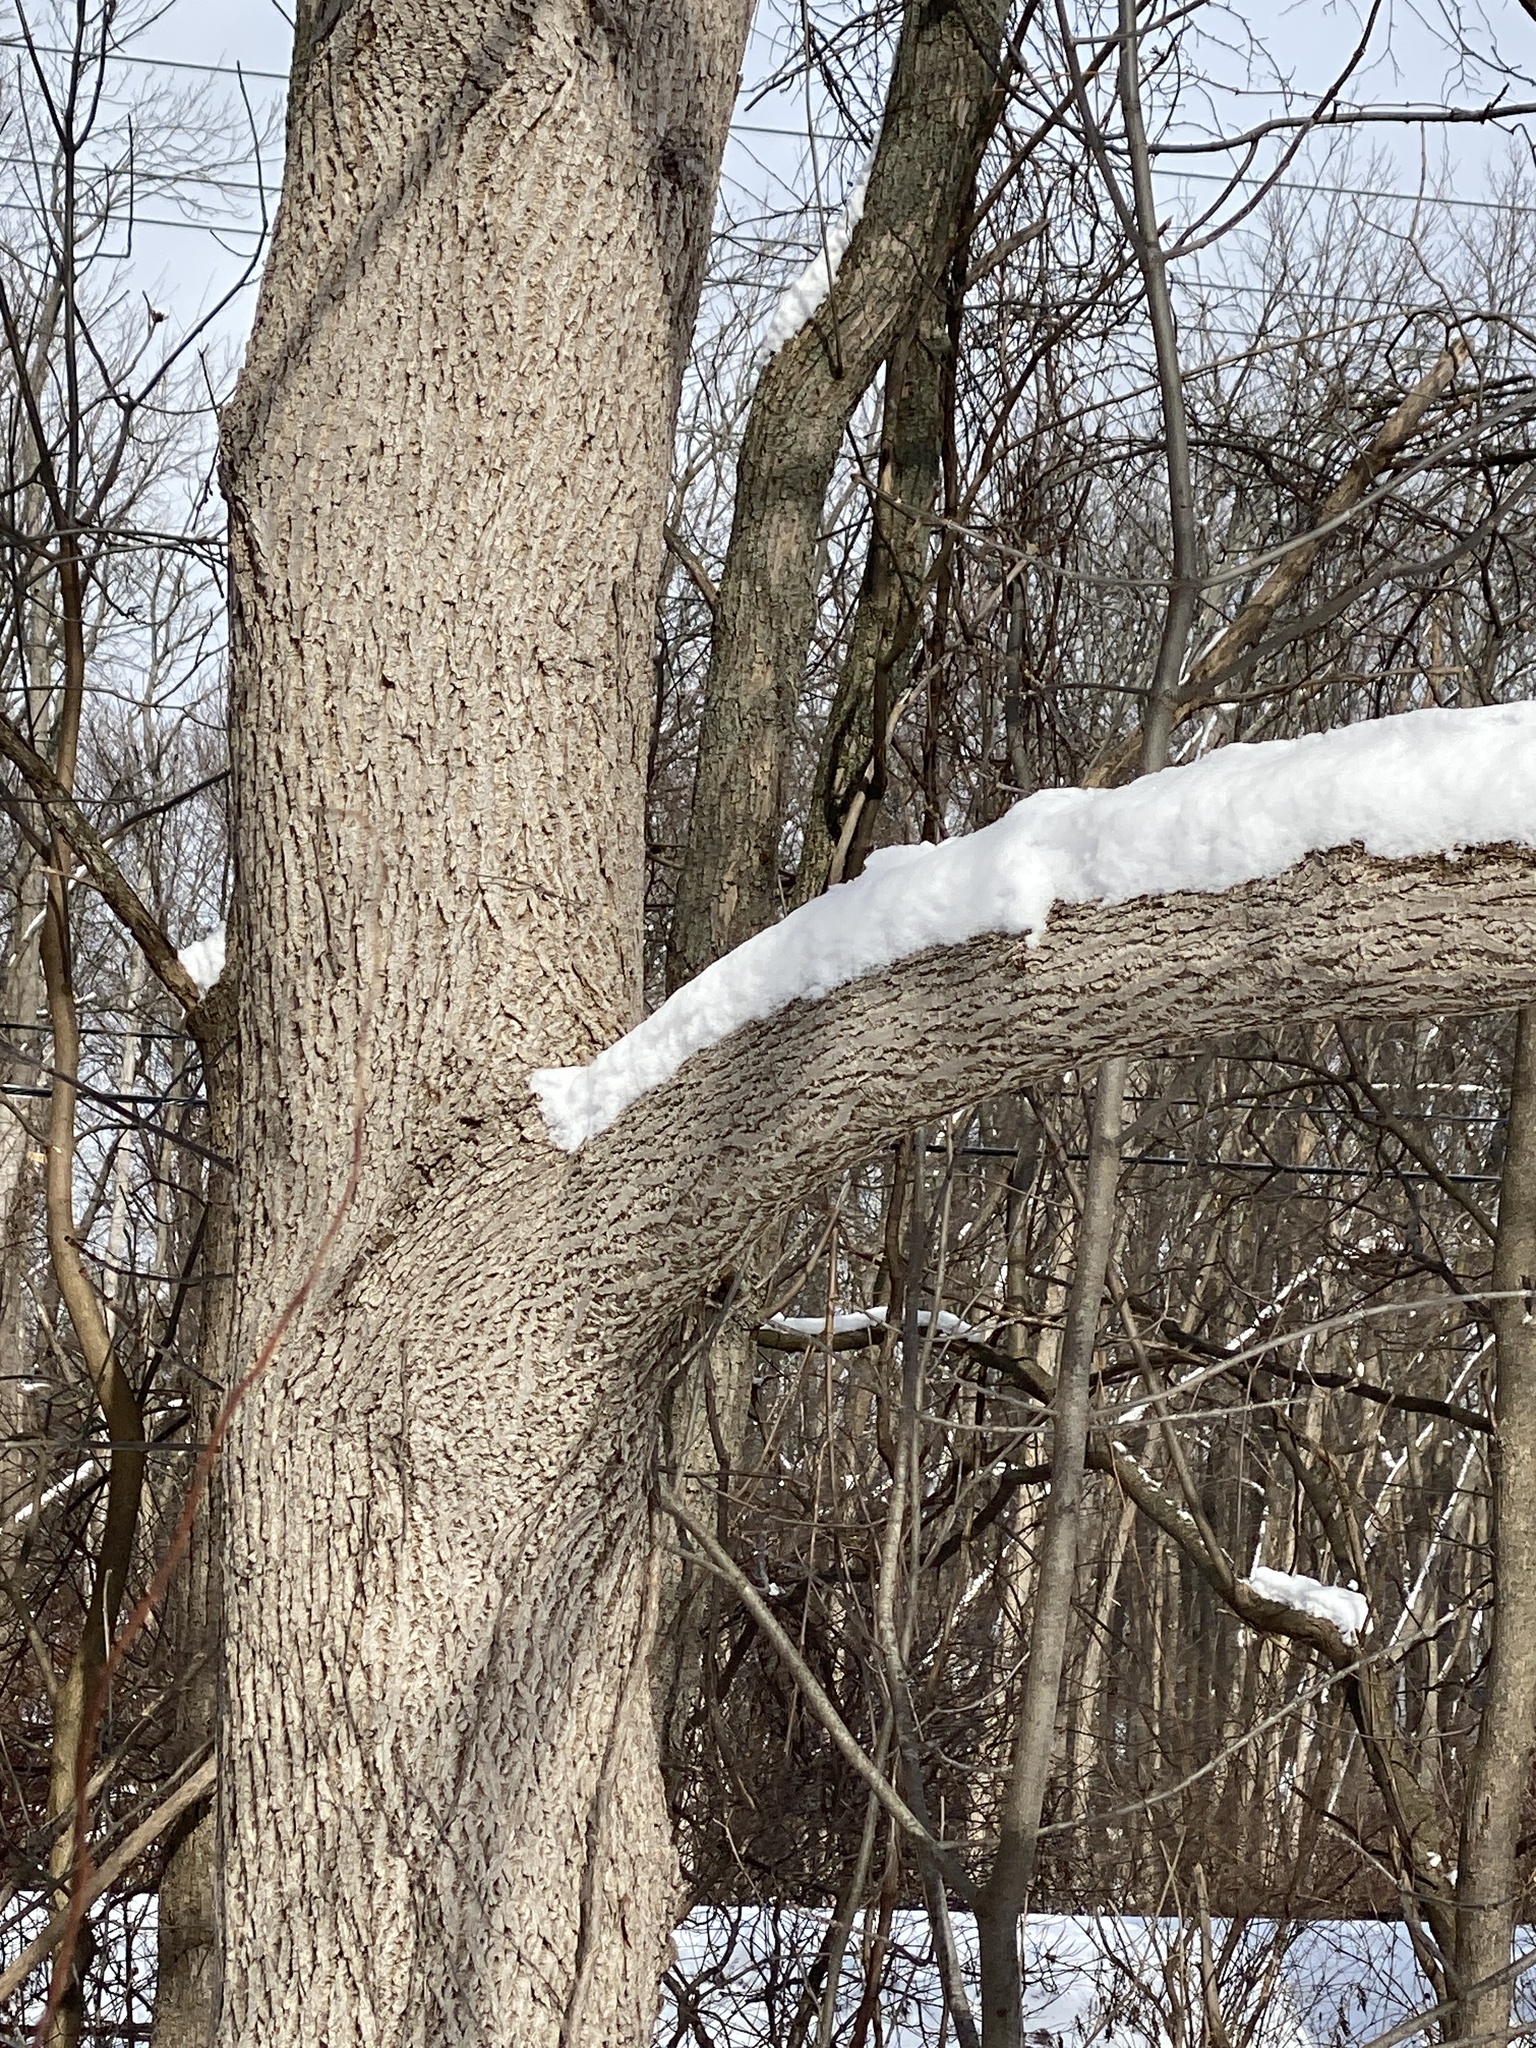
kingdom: Plantae
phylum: Tracheophyta
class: Magnoliopsida
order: Fagales
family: Juglandaceae
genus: Juglans
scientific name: Juglans nigra
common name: Black walnut
